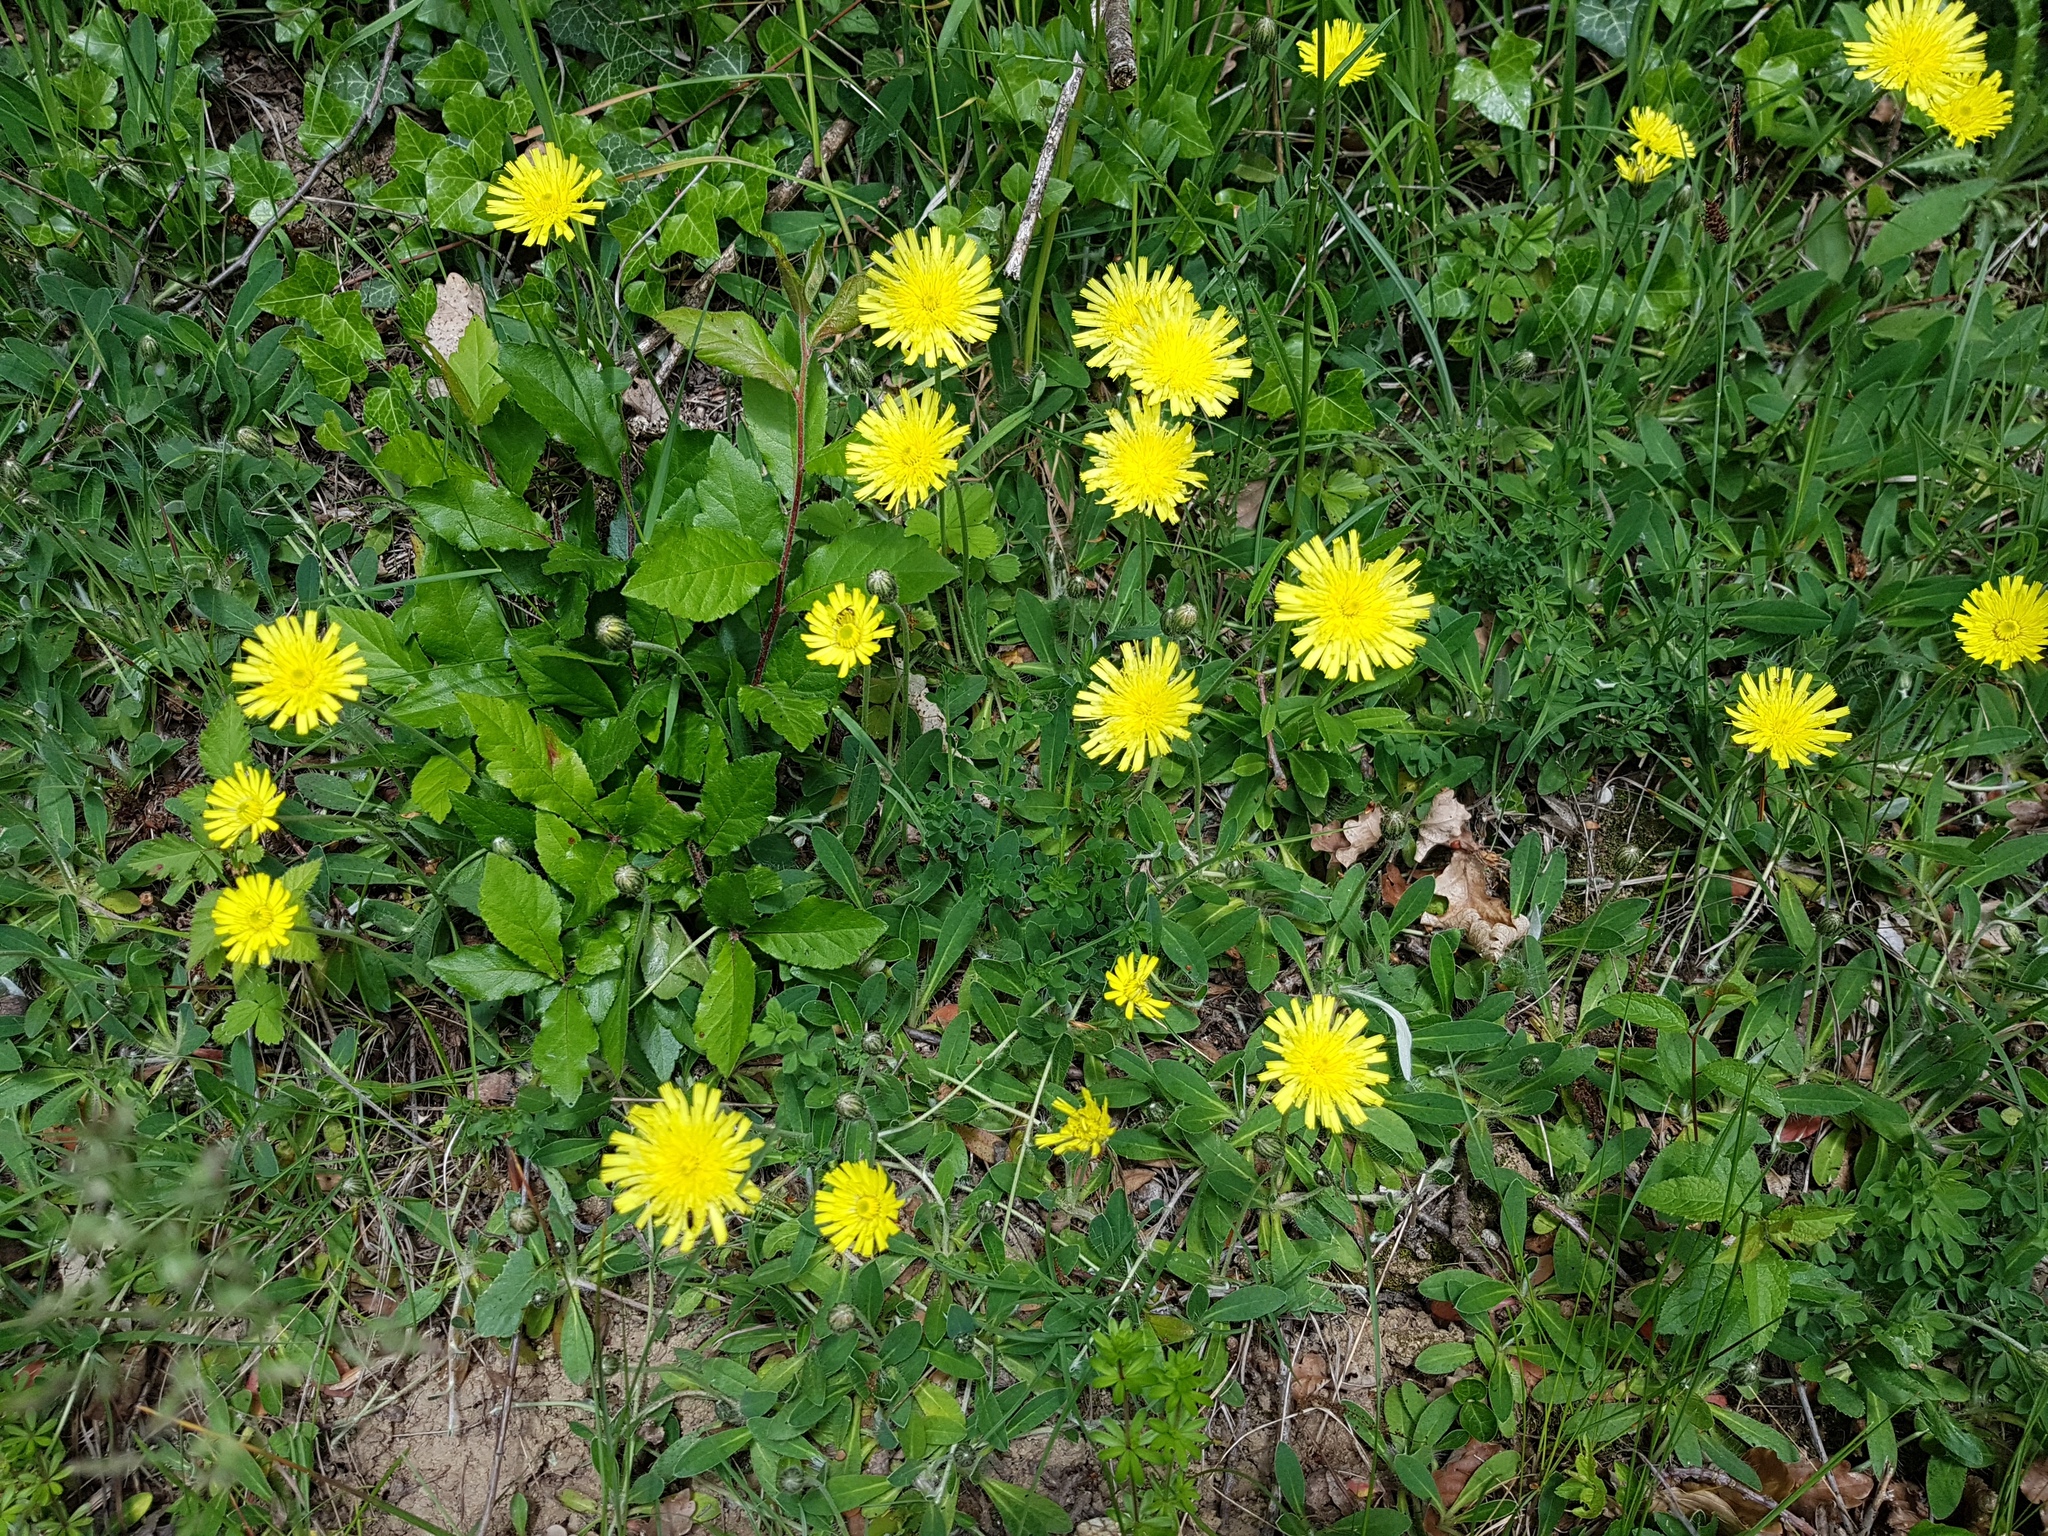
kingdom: Plantae
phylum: Tracheophyta
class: Magnoliopsida
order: Asterales
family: Asteraceae
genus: Pilosella
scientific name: Pilosella officinarum
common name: Mouse-ear hawkweed
